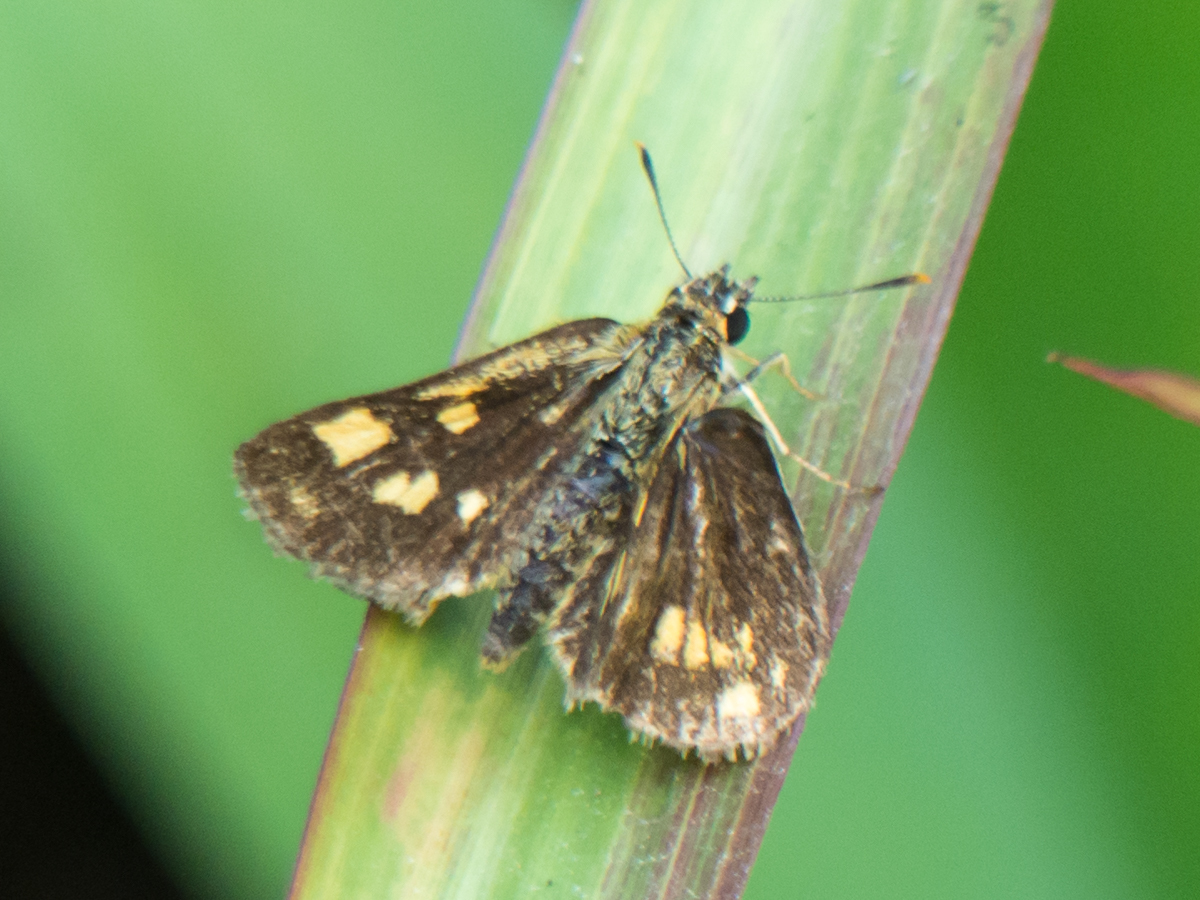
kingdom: Animalia
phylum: Arthropoda
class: Insecta
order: Lepidoptera
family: Hesperiidae
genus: Ampittia
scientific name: Ampittia dioscorides
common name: Common bush hopper
